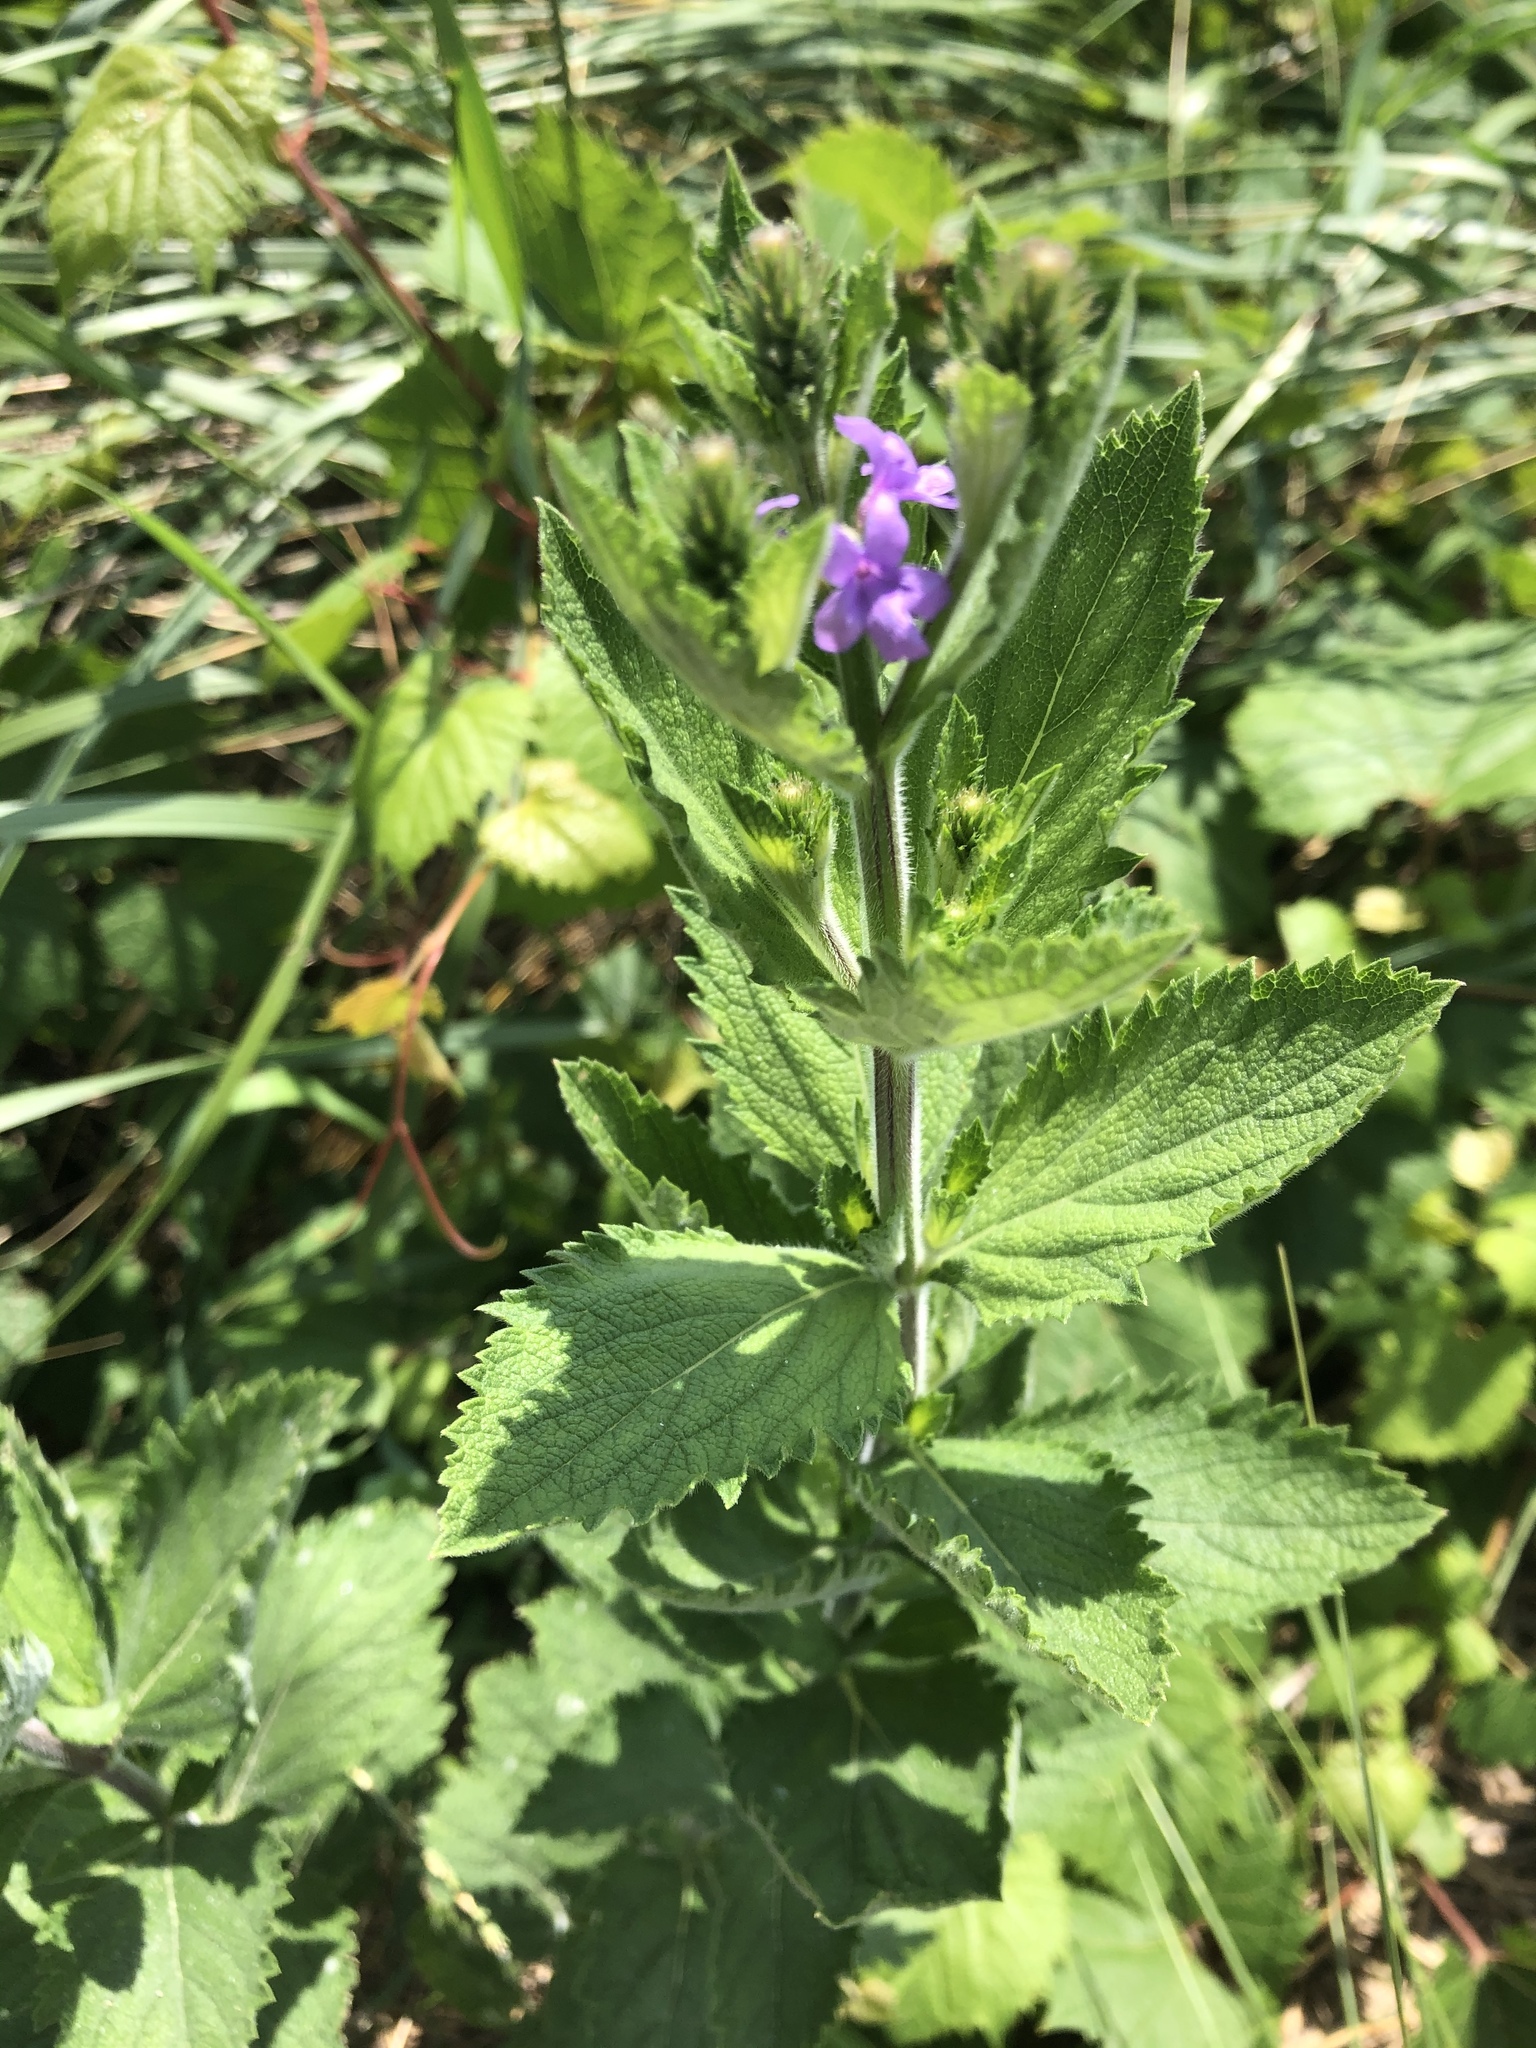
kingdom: Plantae
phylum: Tracheophyta
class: Magnoliopsida
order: Lamiales
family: Verbenaceae
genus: Verbena
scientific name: Verbena stricta
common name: Hoary vervain
